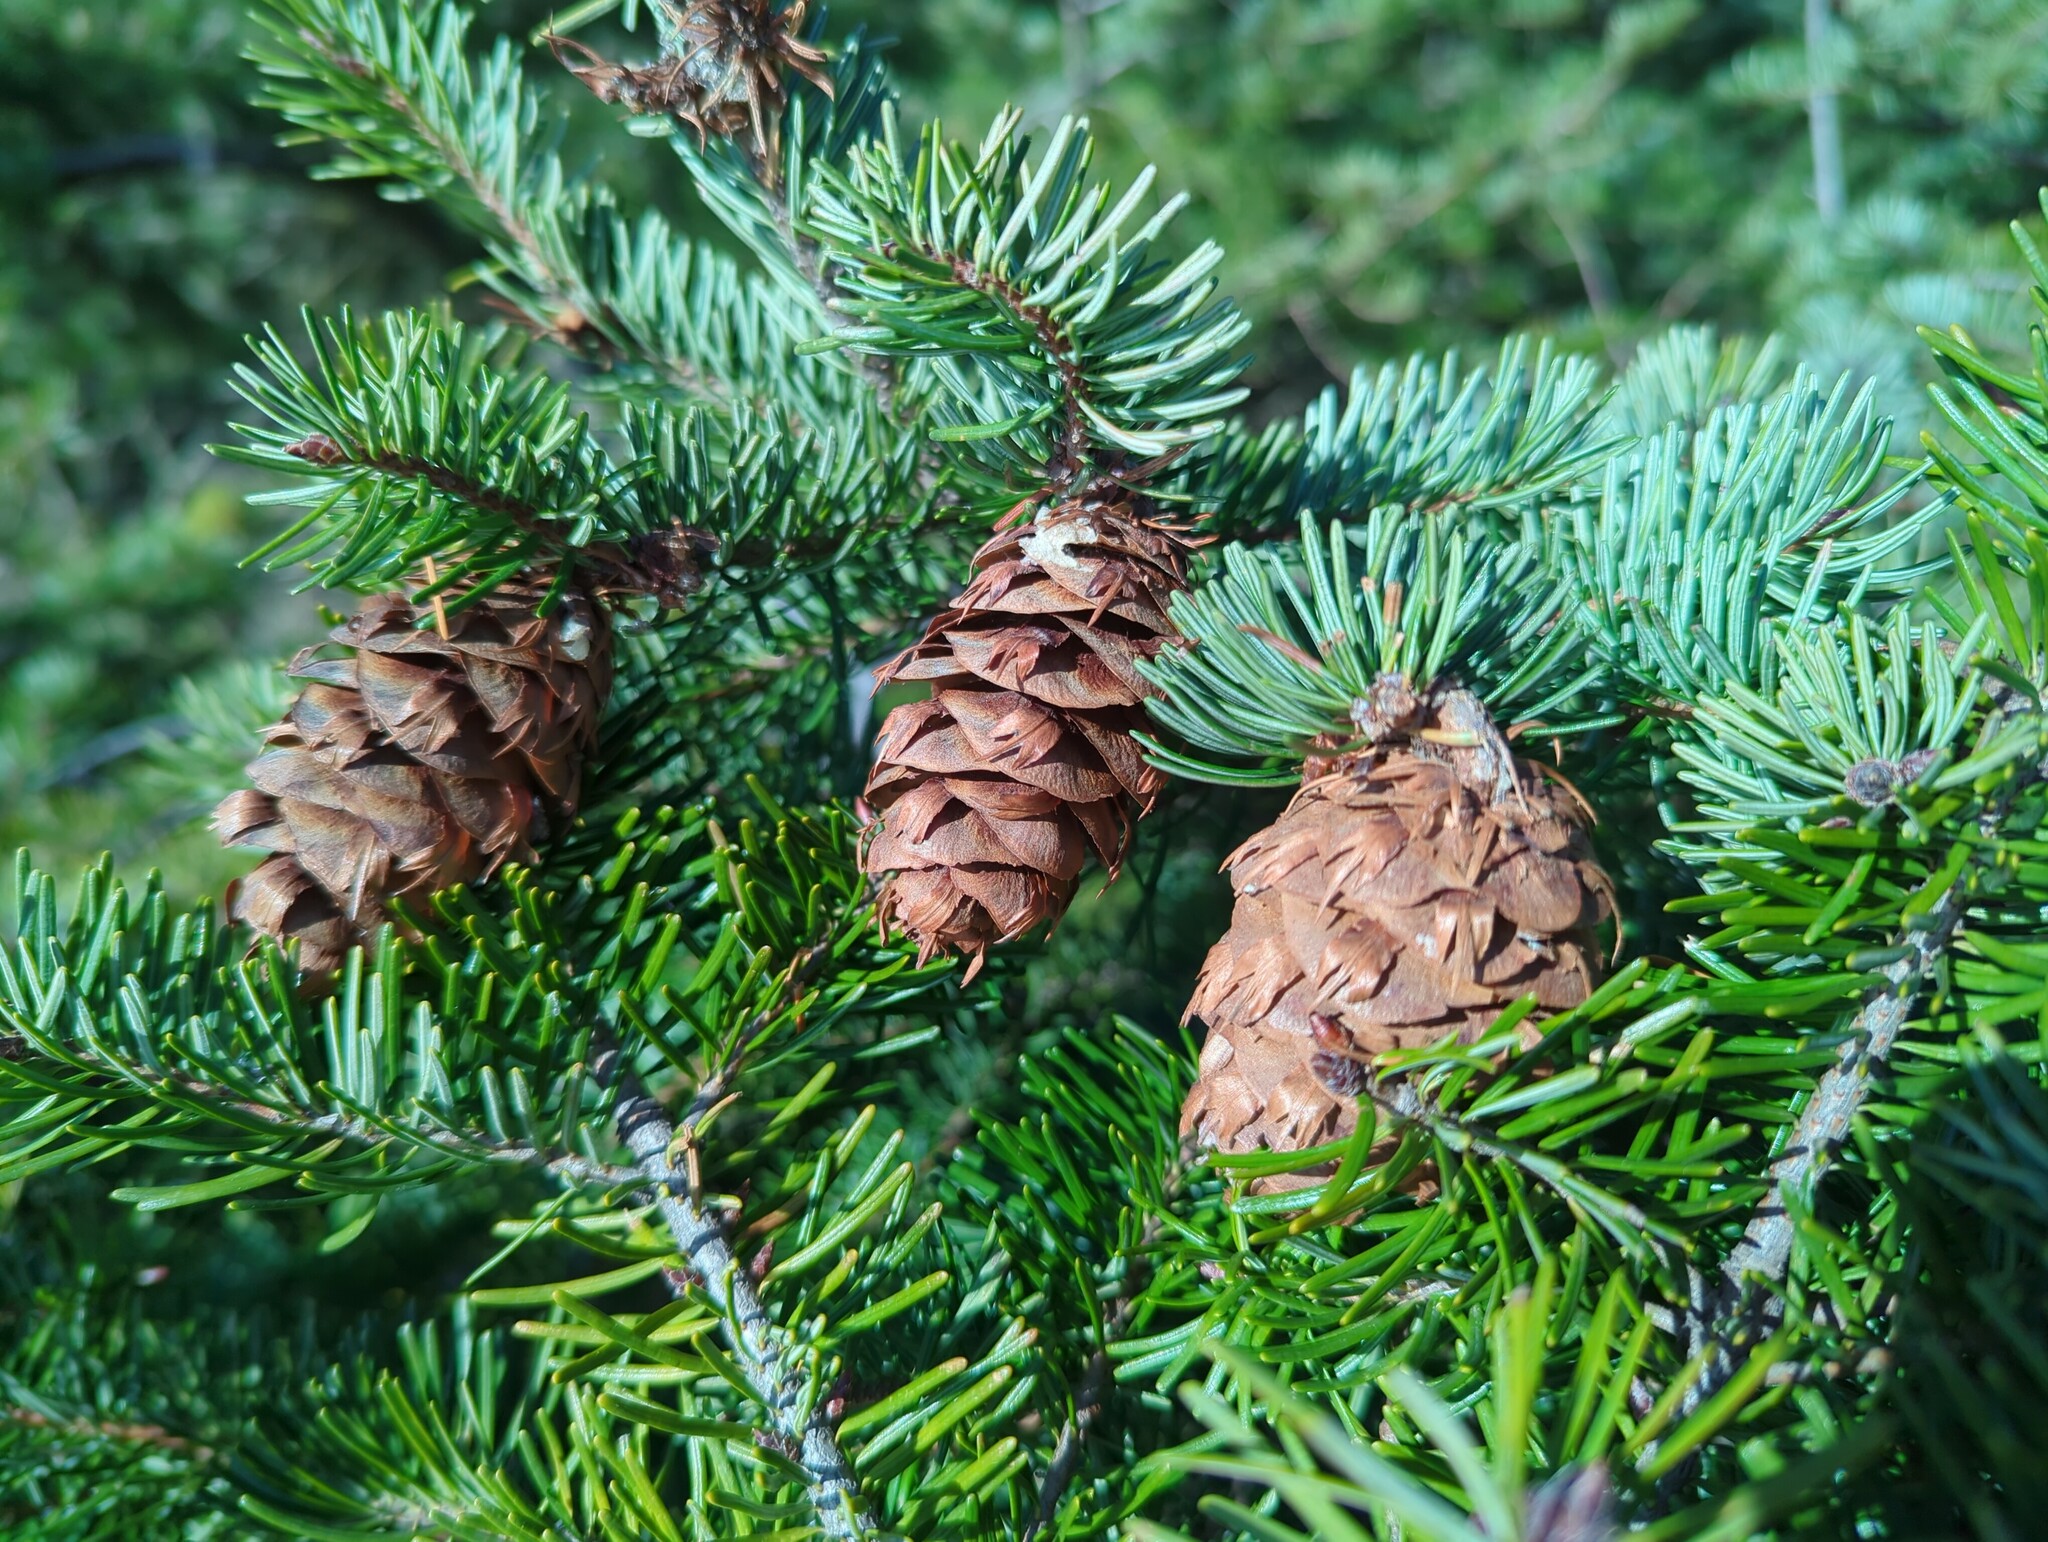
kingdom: Plantae
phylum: Tracheophyta
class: Pinopsida
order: Pinales
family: Pinaceae
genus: Pseudotsuga
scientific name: Pseudotsuga menziesii
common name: Douglas fir
